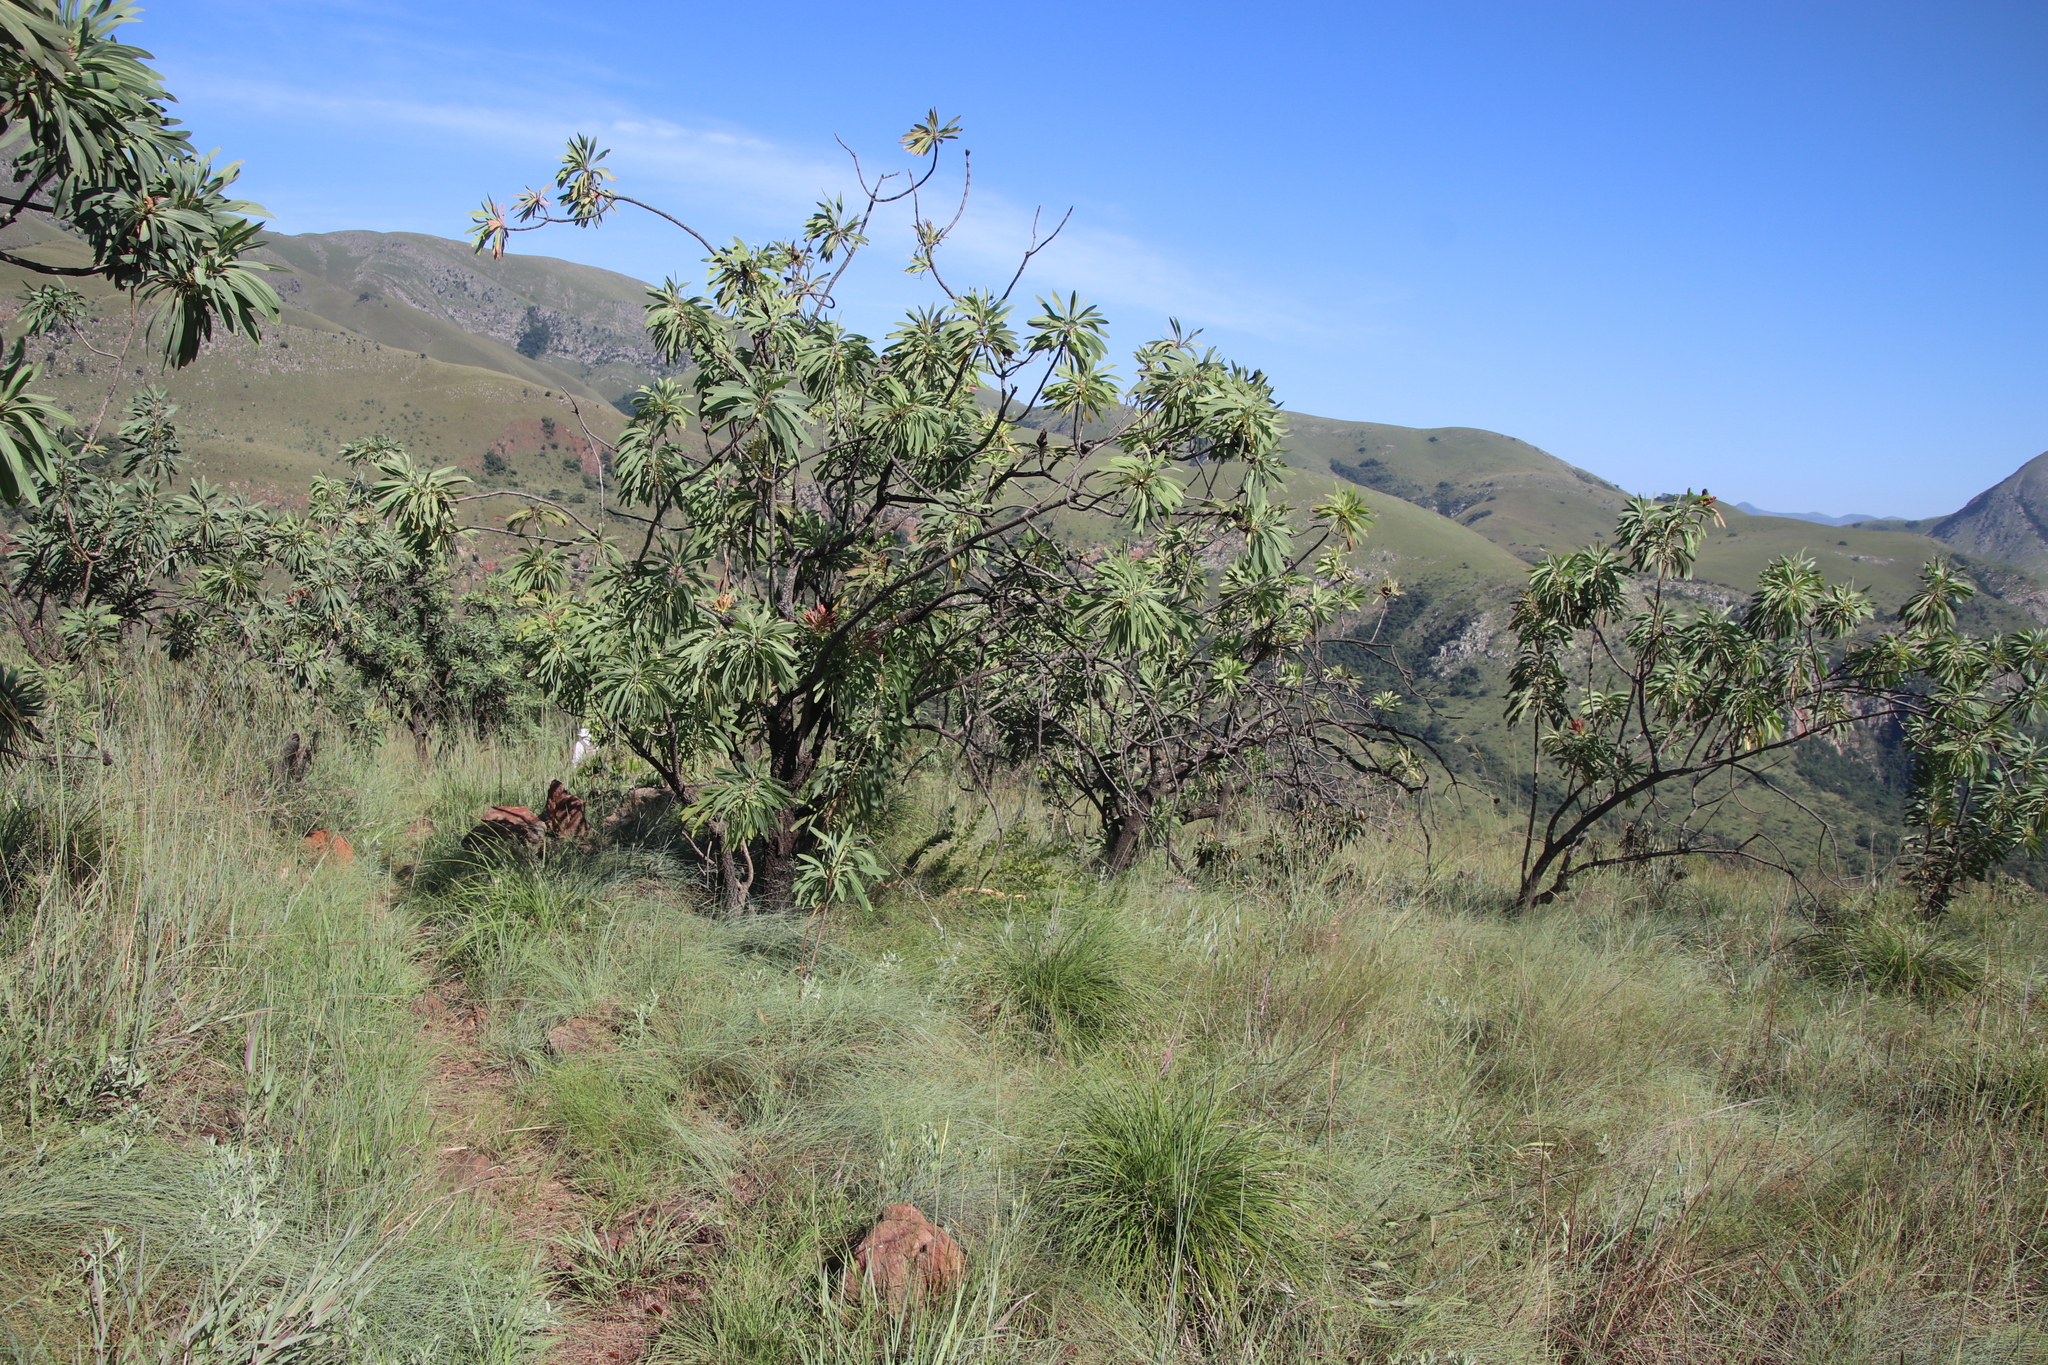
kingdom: Plantae
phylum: Tracheophyta
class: Magnoliopsida
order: Proteales
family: Proteaceae
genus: Protea
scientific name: Protea caffra
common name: Common sugarbush
